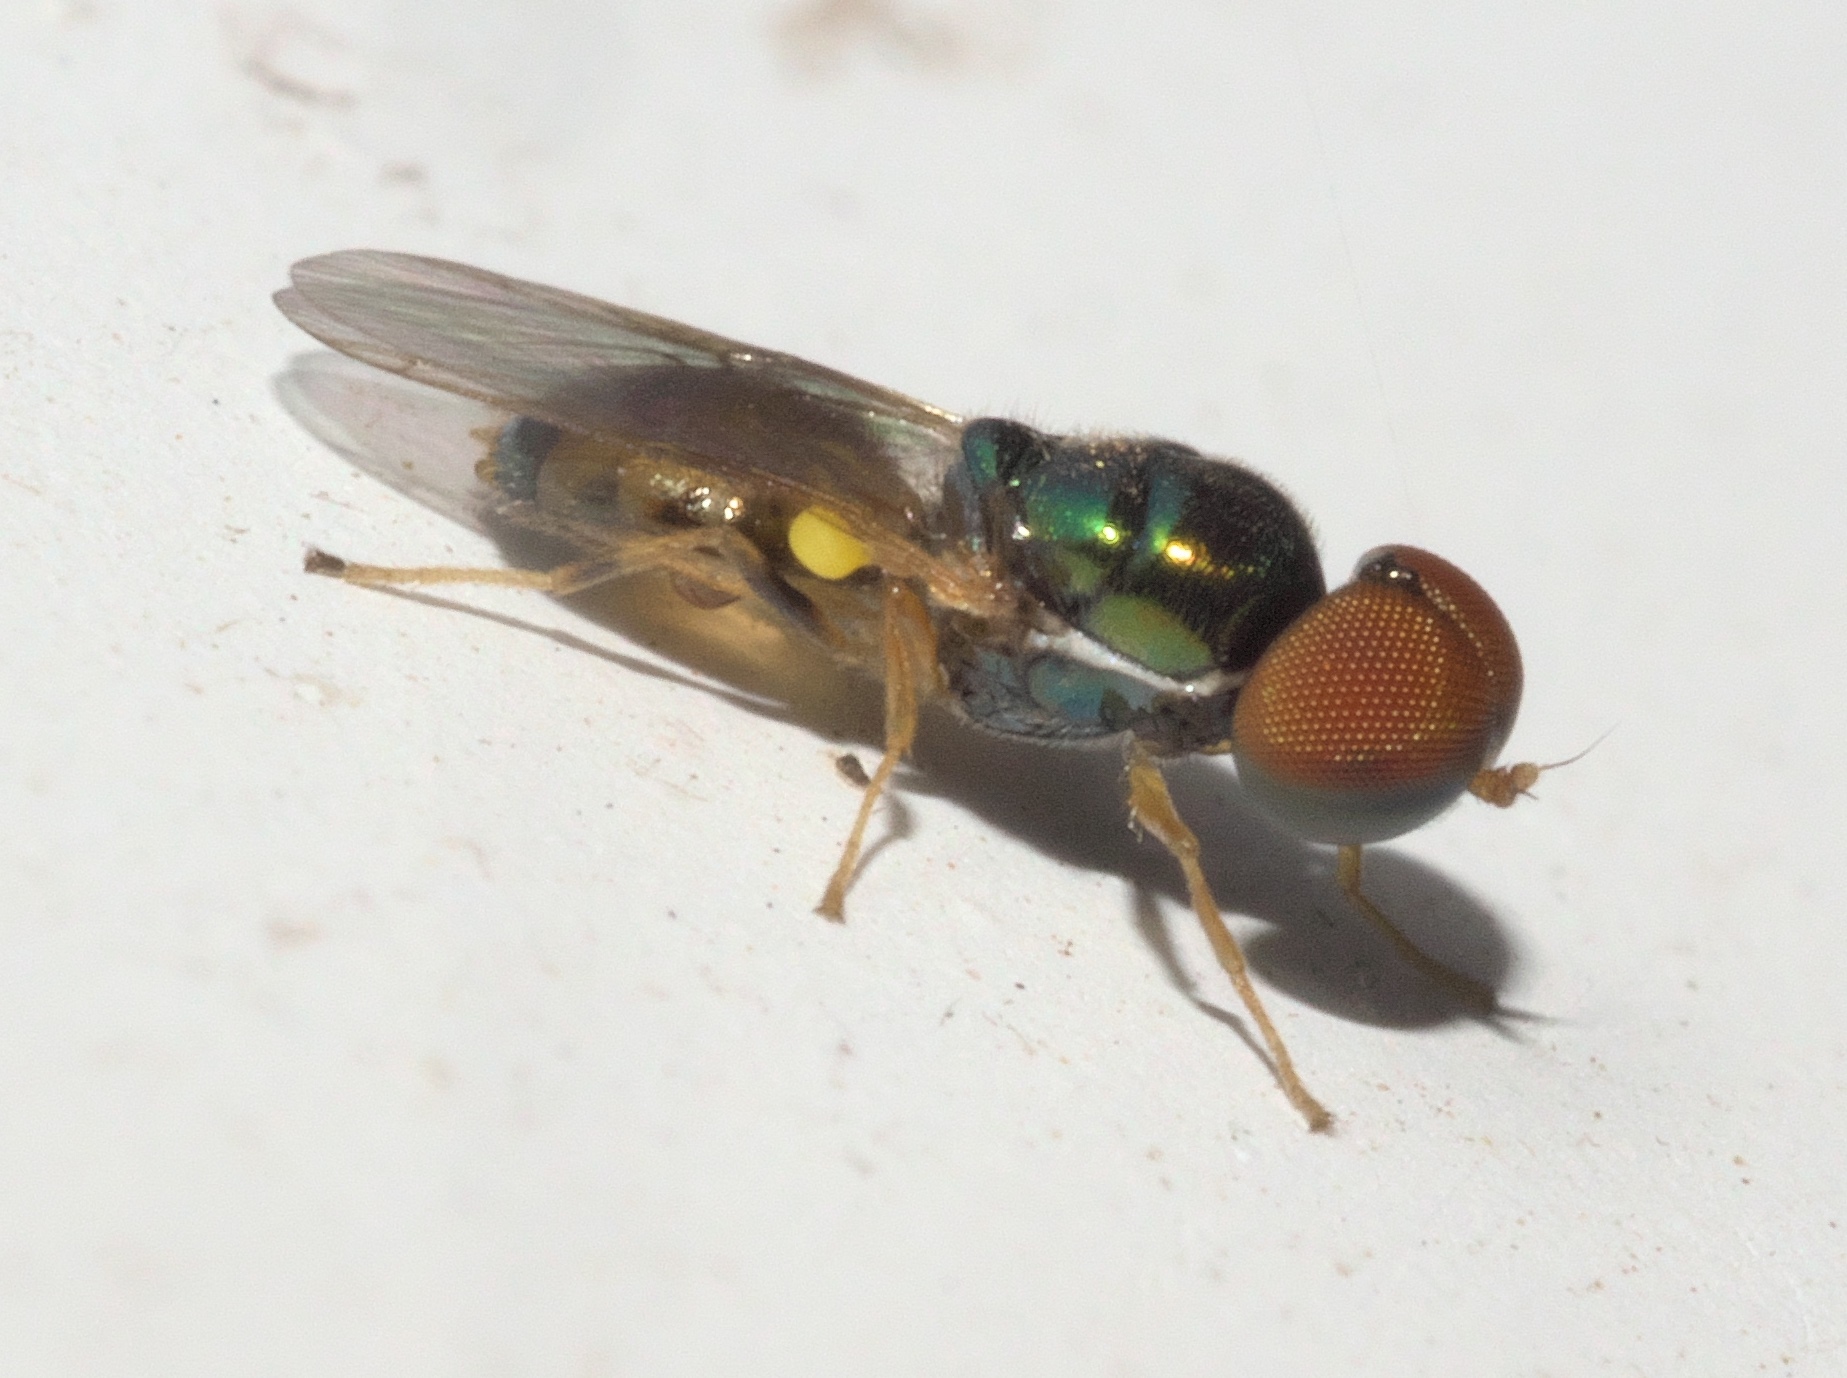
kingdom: Animalia
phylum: Arthropoda
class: Insecta
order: Diptera
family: Stratiomyidae
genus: Microchrysa
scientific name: Microchrysa flaviventris
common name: Soldier fly
